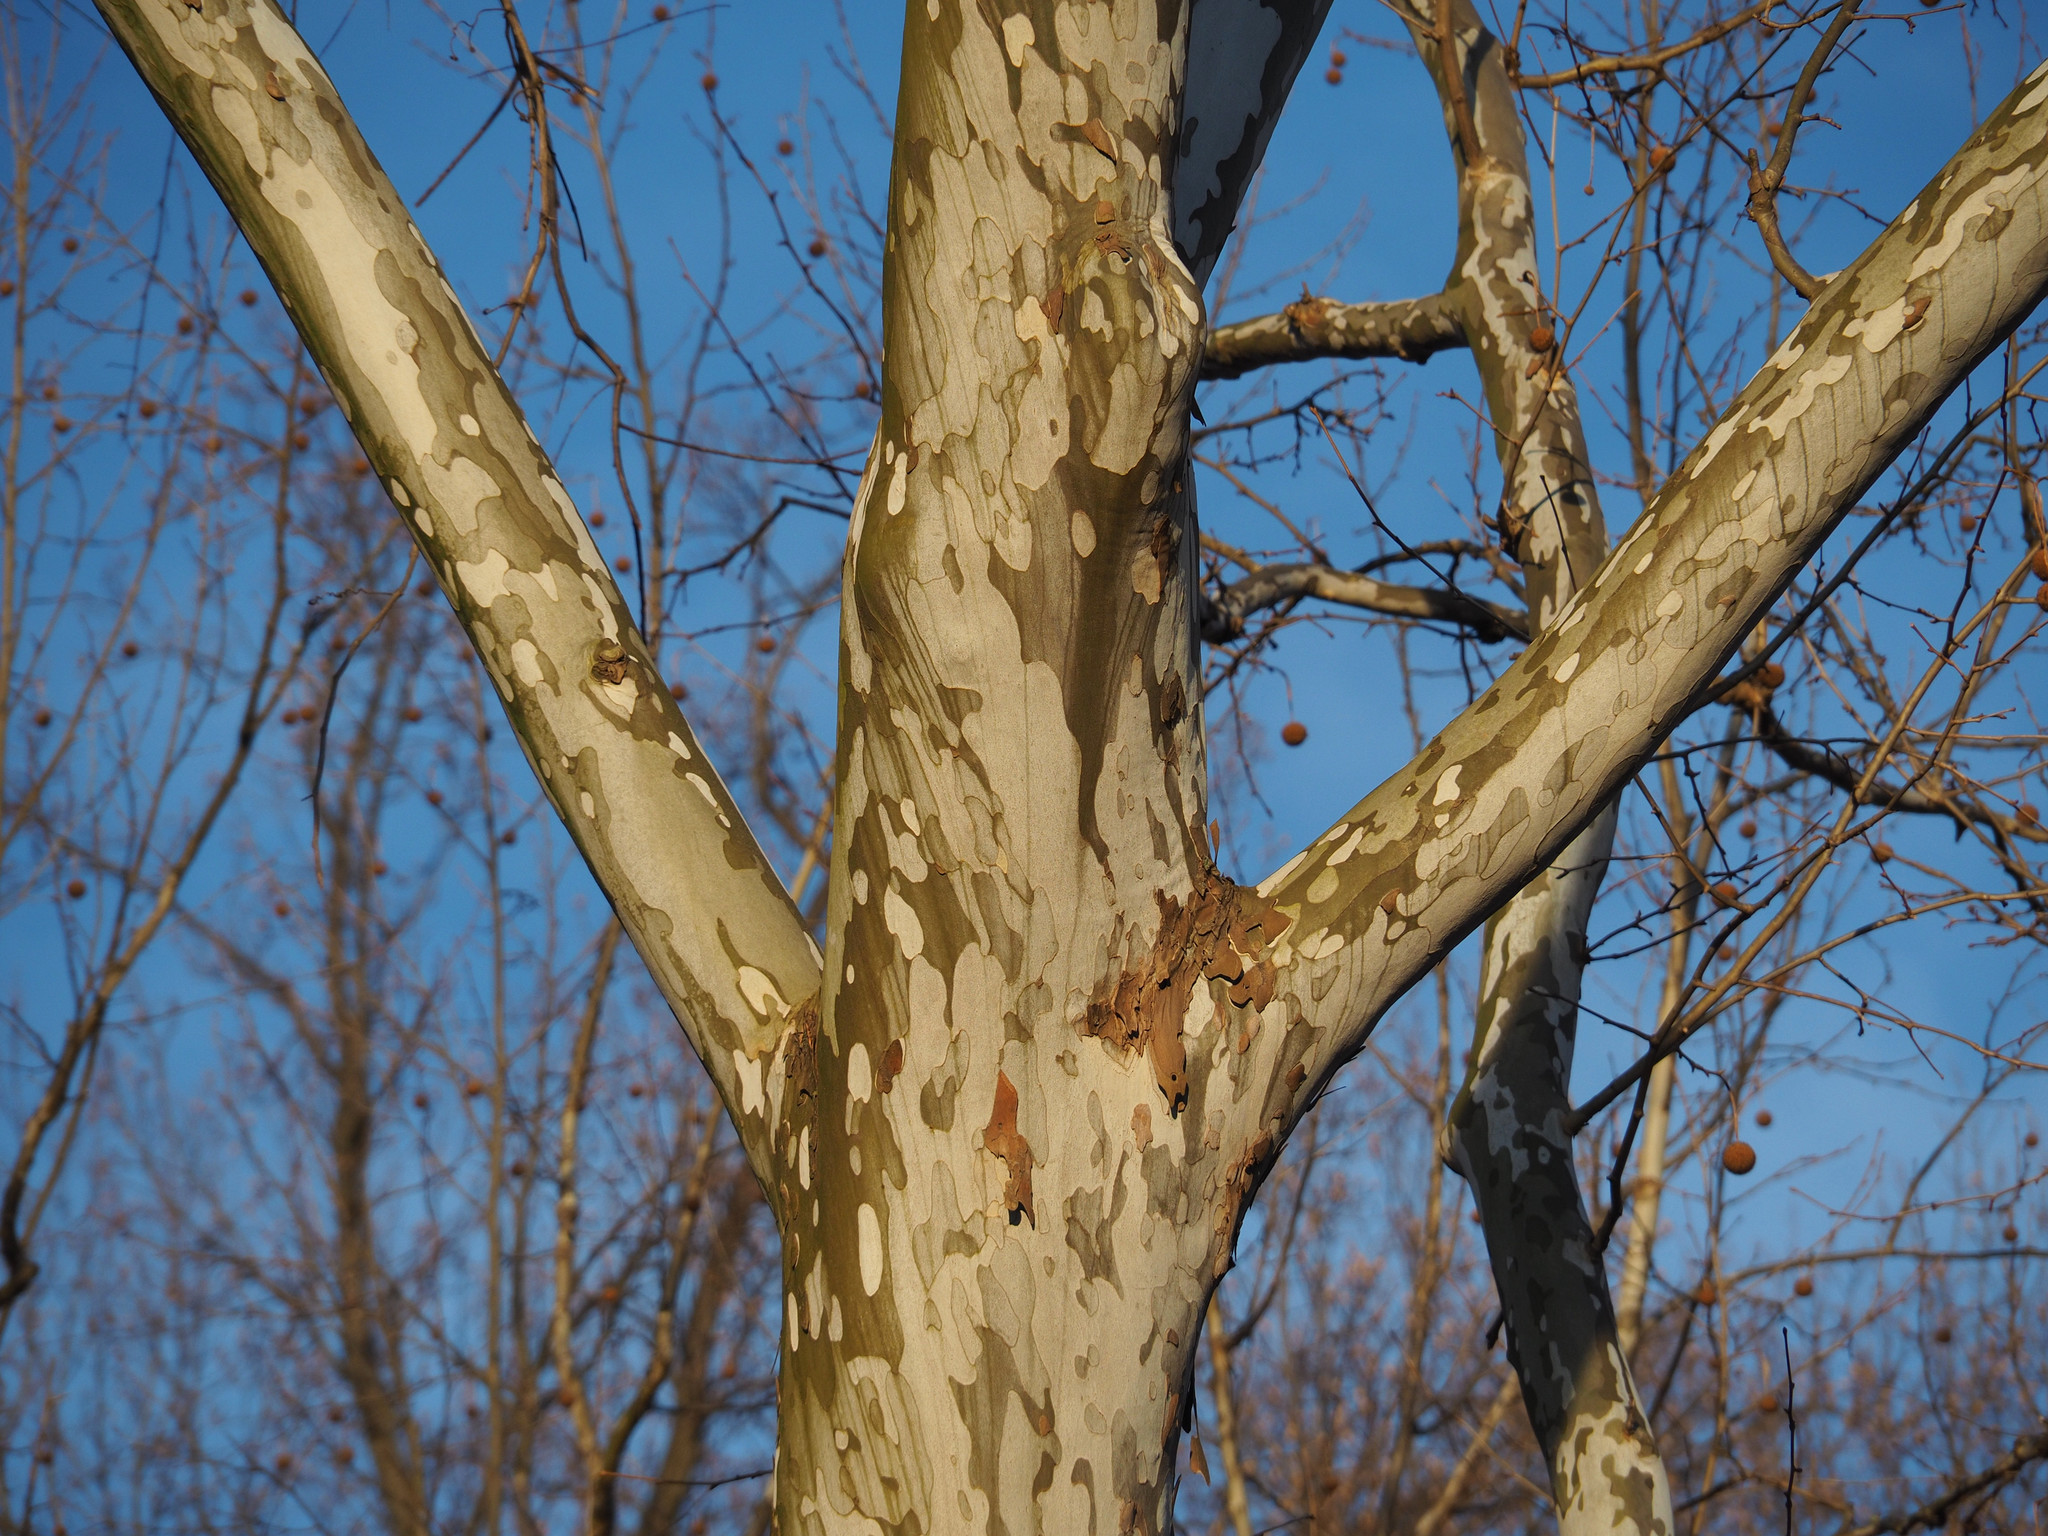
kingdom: Plantae
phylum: Tracheophyta
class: Magnoliopsida
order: Proteales
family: Platanaceae
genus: Platanus
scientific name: Platanus occidentalis
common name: American sycamore
